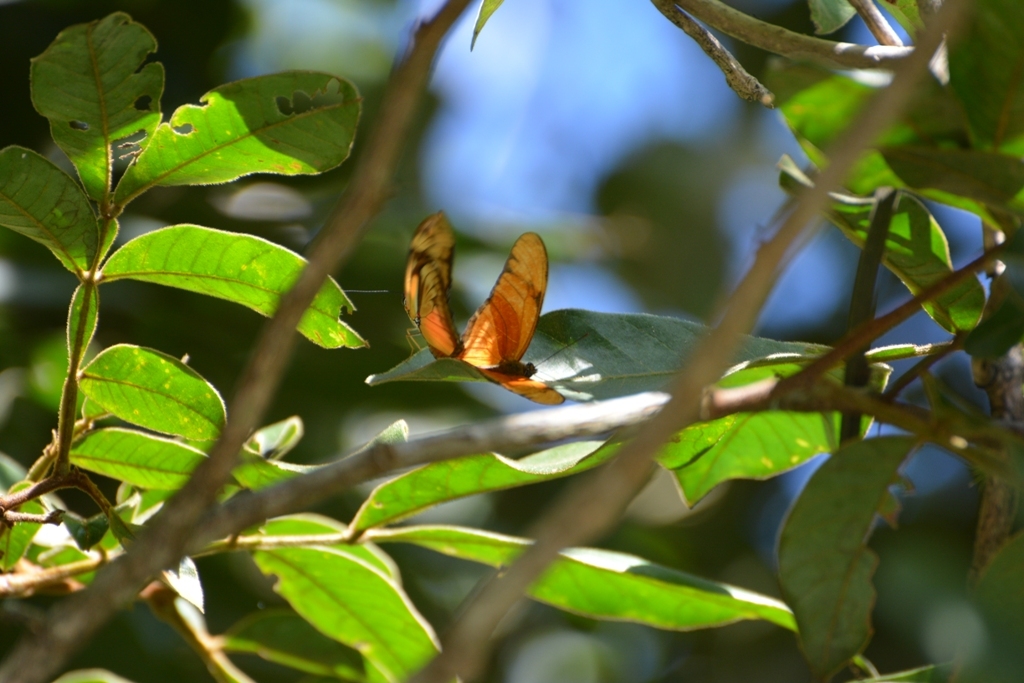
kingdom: Animalia
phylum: Arthropoda
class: Insecta
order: Lepidoptera
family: Nymphalidae
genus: Dryas
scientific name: Dryas iulia
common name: Flambeau
